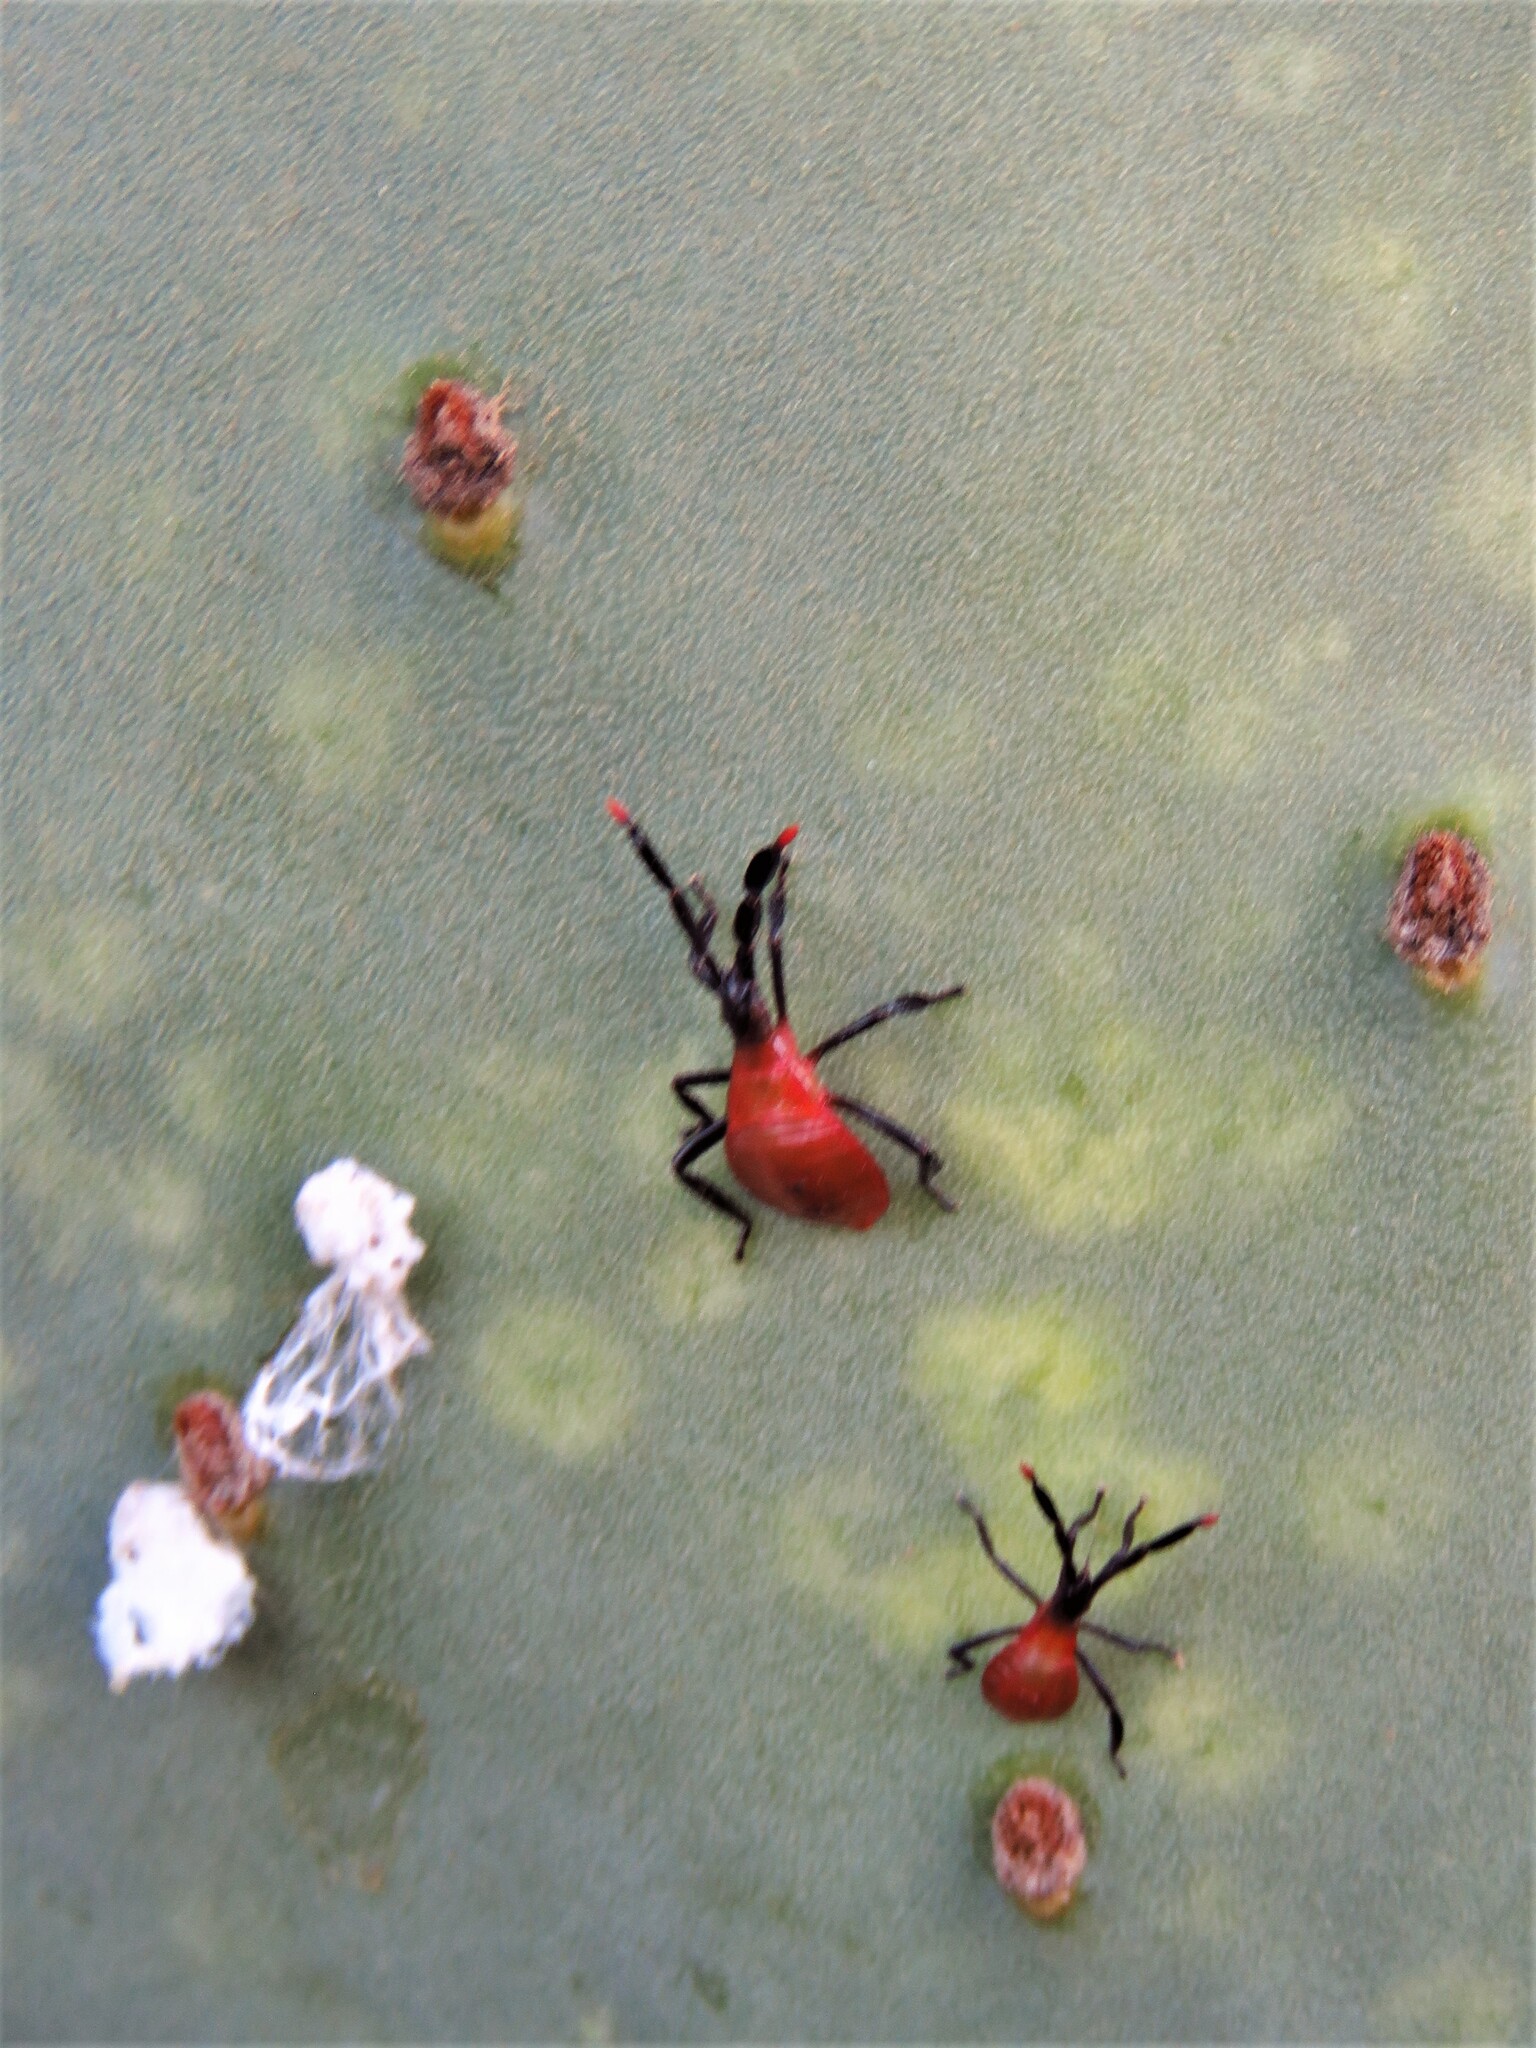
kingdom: Animalia
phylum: Arthropoda
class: Insecta
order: Hemiptera
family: Coreidae
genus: Chelinidea
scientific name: Chelinidea vittiger
